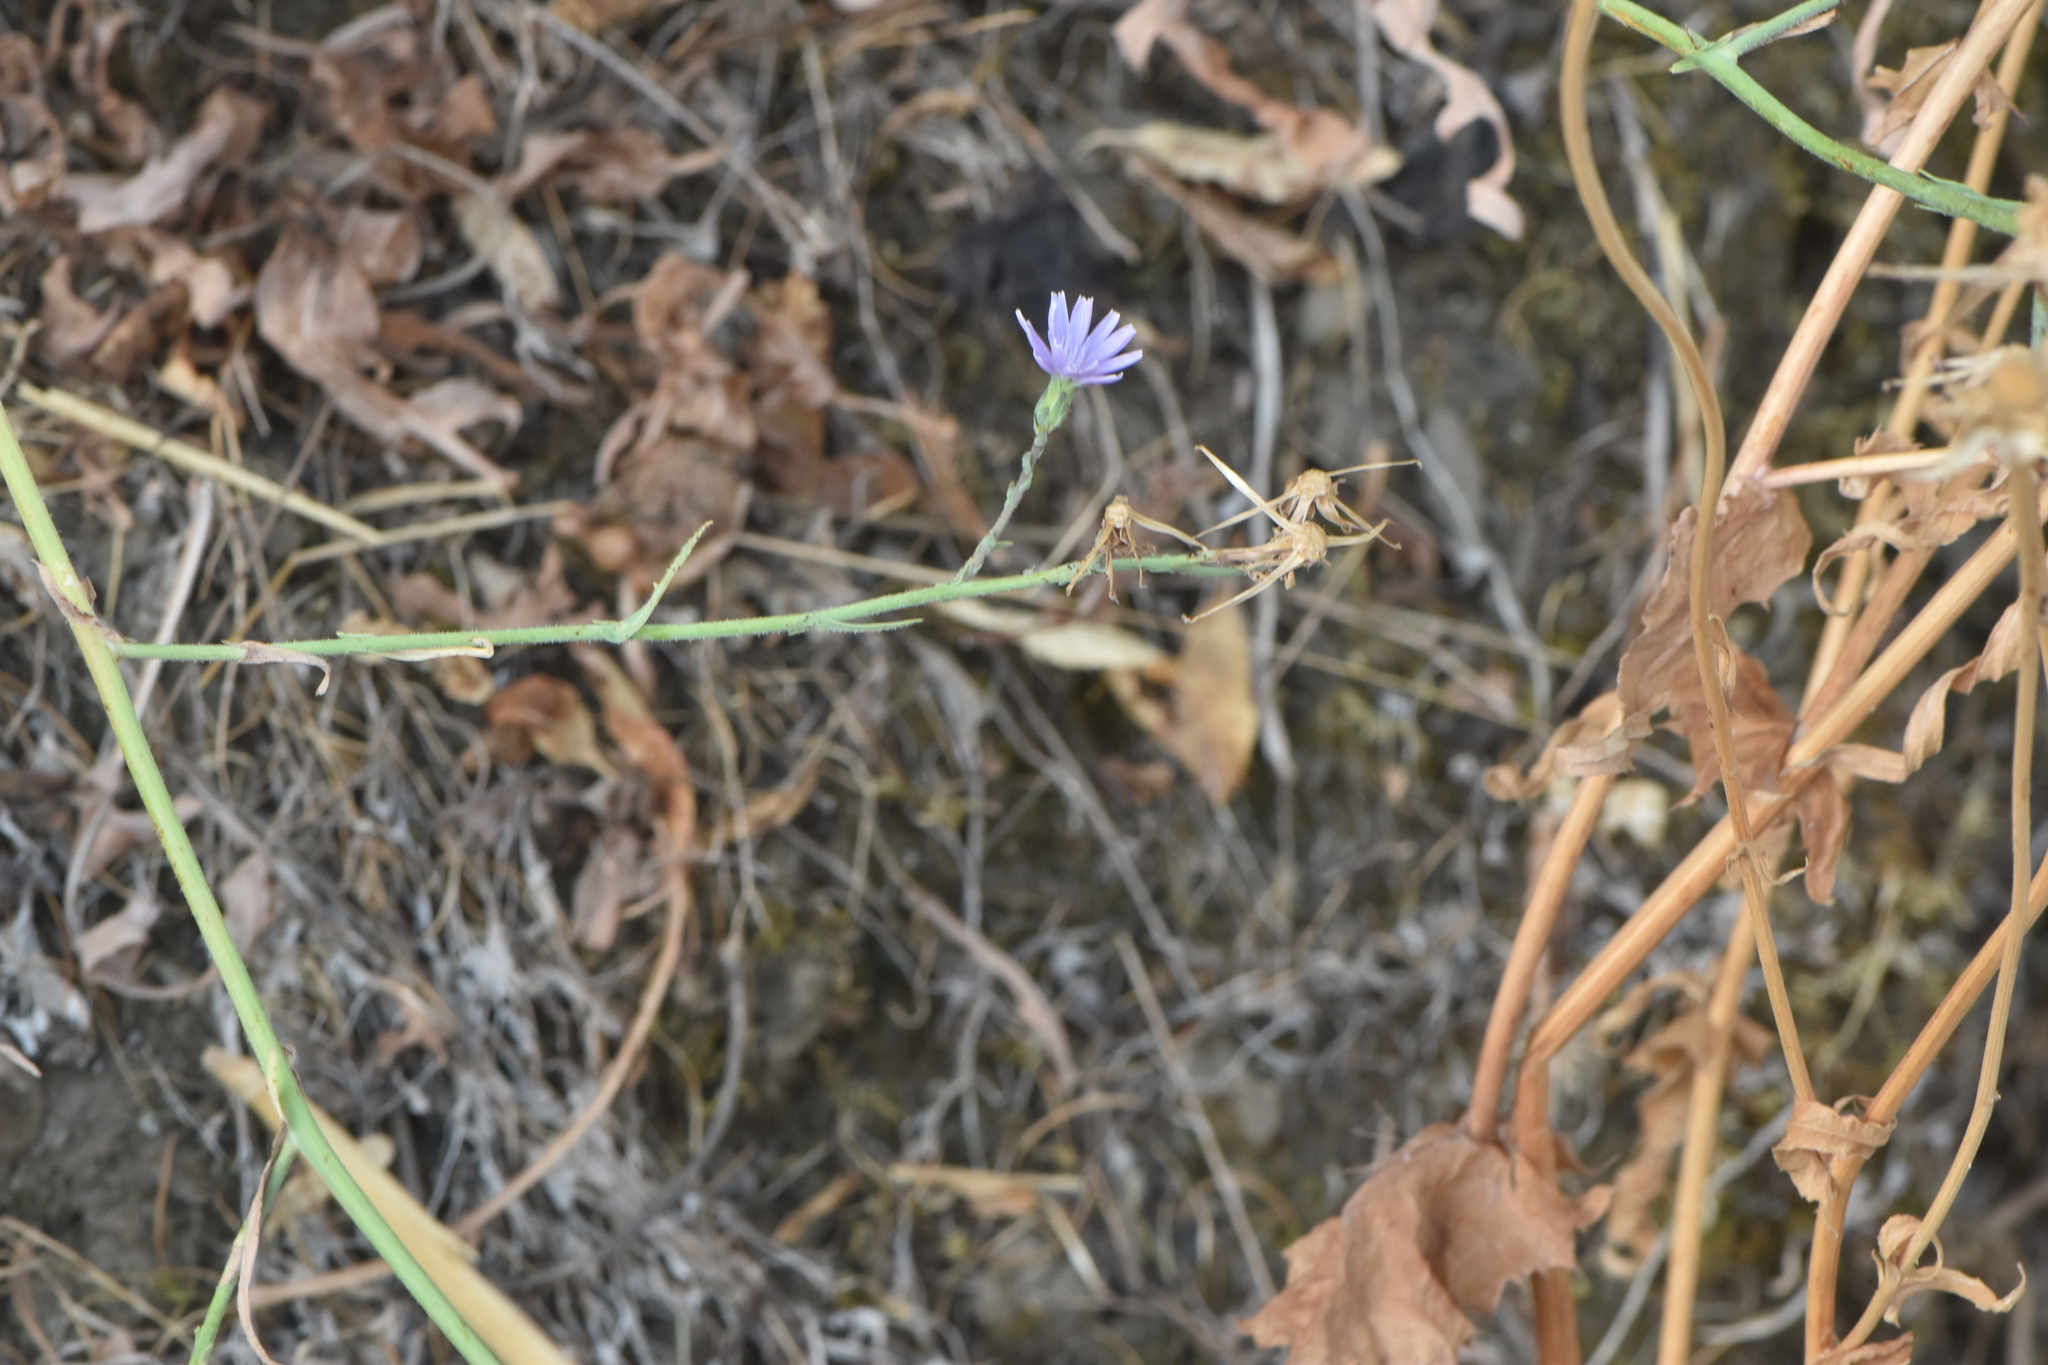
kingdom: Plantae
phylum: Tracheophyta
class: Magnoliopsida
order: Asterales
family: Asteraceae
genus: Lactuca
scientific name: Lactuca tenerrima
